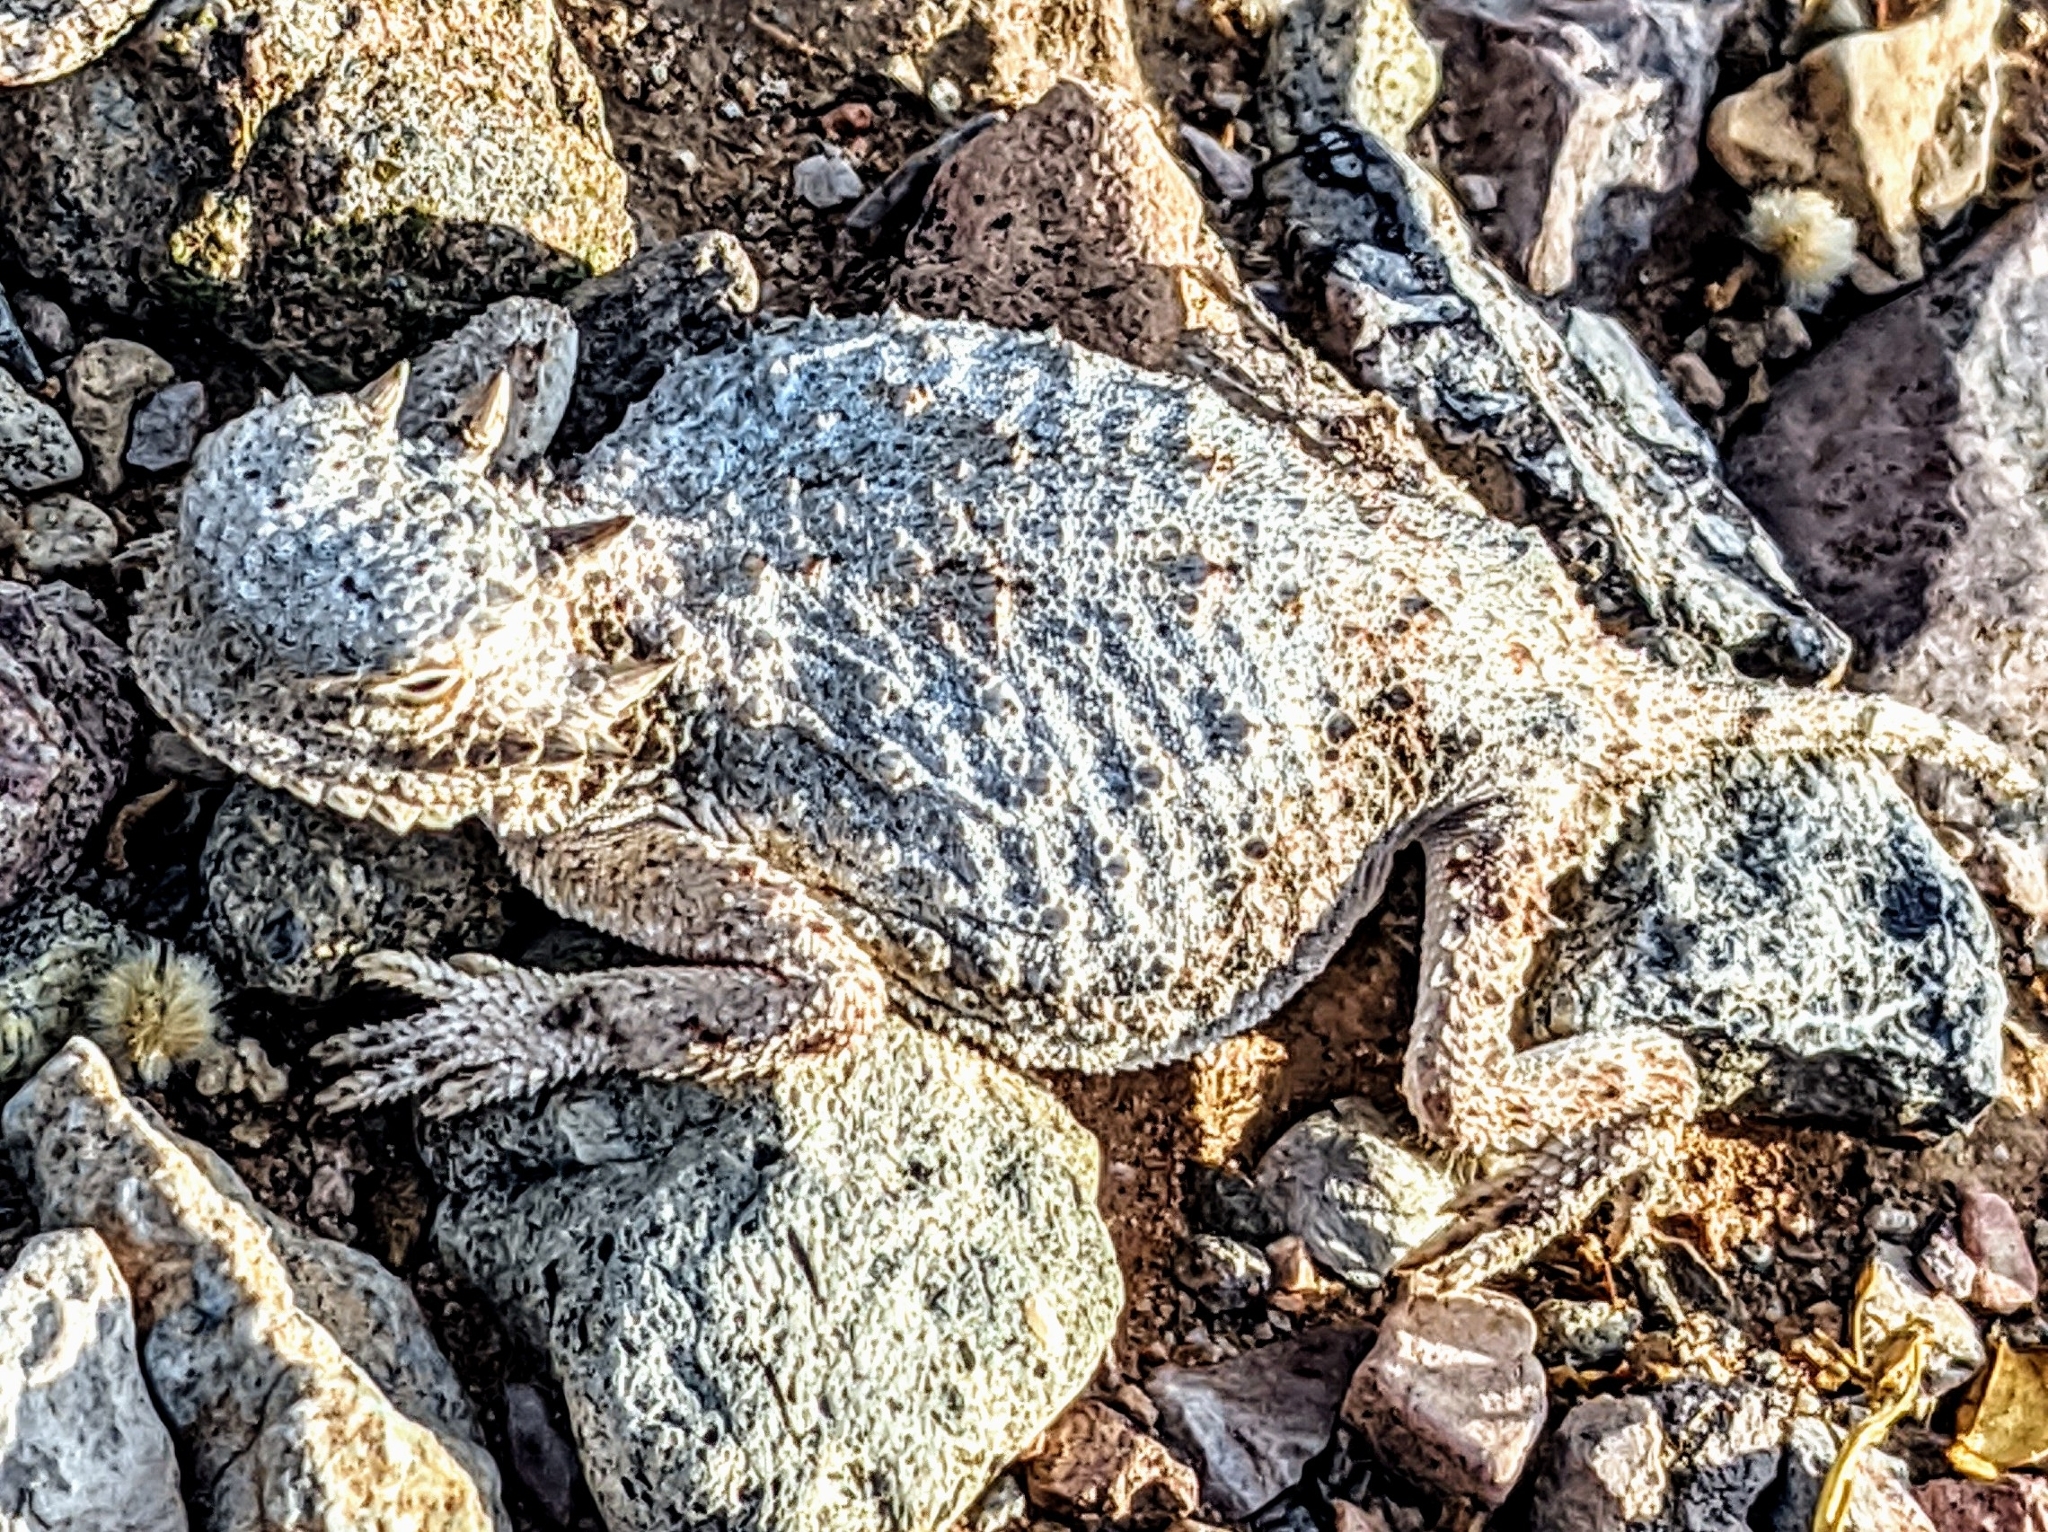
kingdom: Animalia
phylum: Chordata
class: Squamata
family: Phrynosomatidae
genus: Phrynosoma
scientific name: Phrynosoma modestum
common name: Roundtail horned lizard
